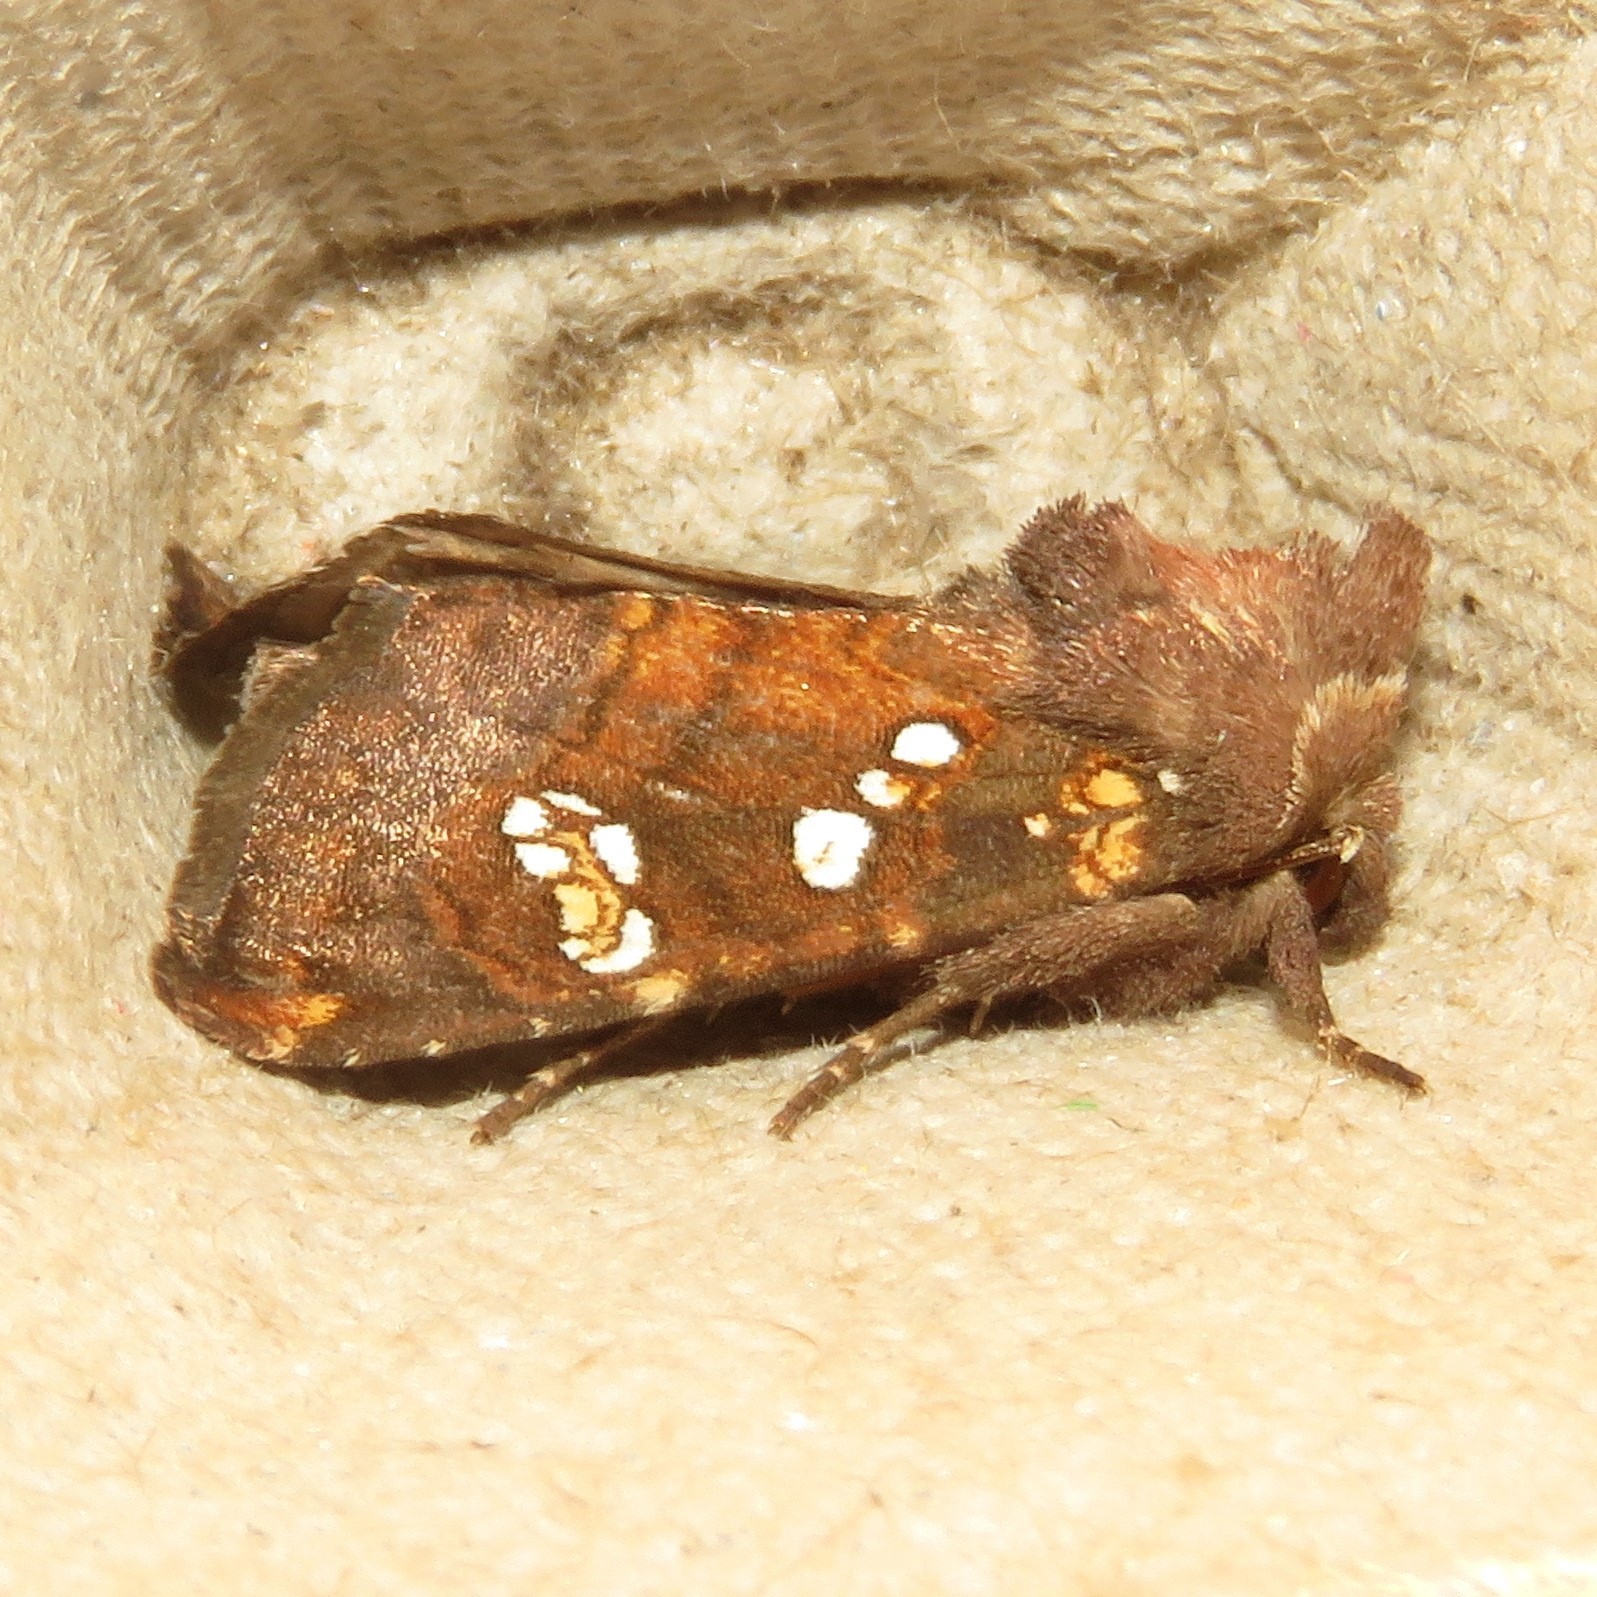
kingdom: Animalia
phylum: Arthropoda
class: Insecta
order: Lepidoptera
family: Noctuidae
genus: Papaipema
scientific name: Papaipema baptisiae
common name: Wild indigo borer moth
